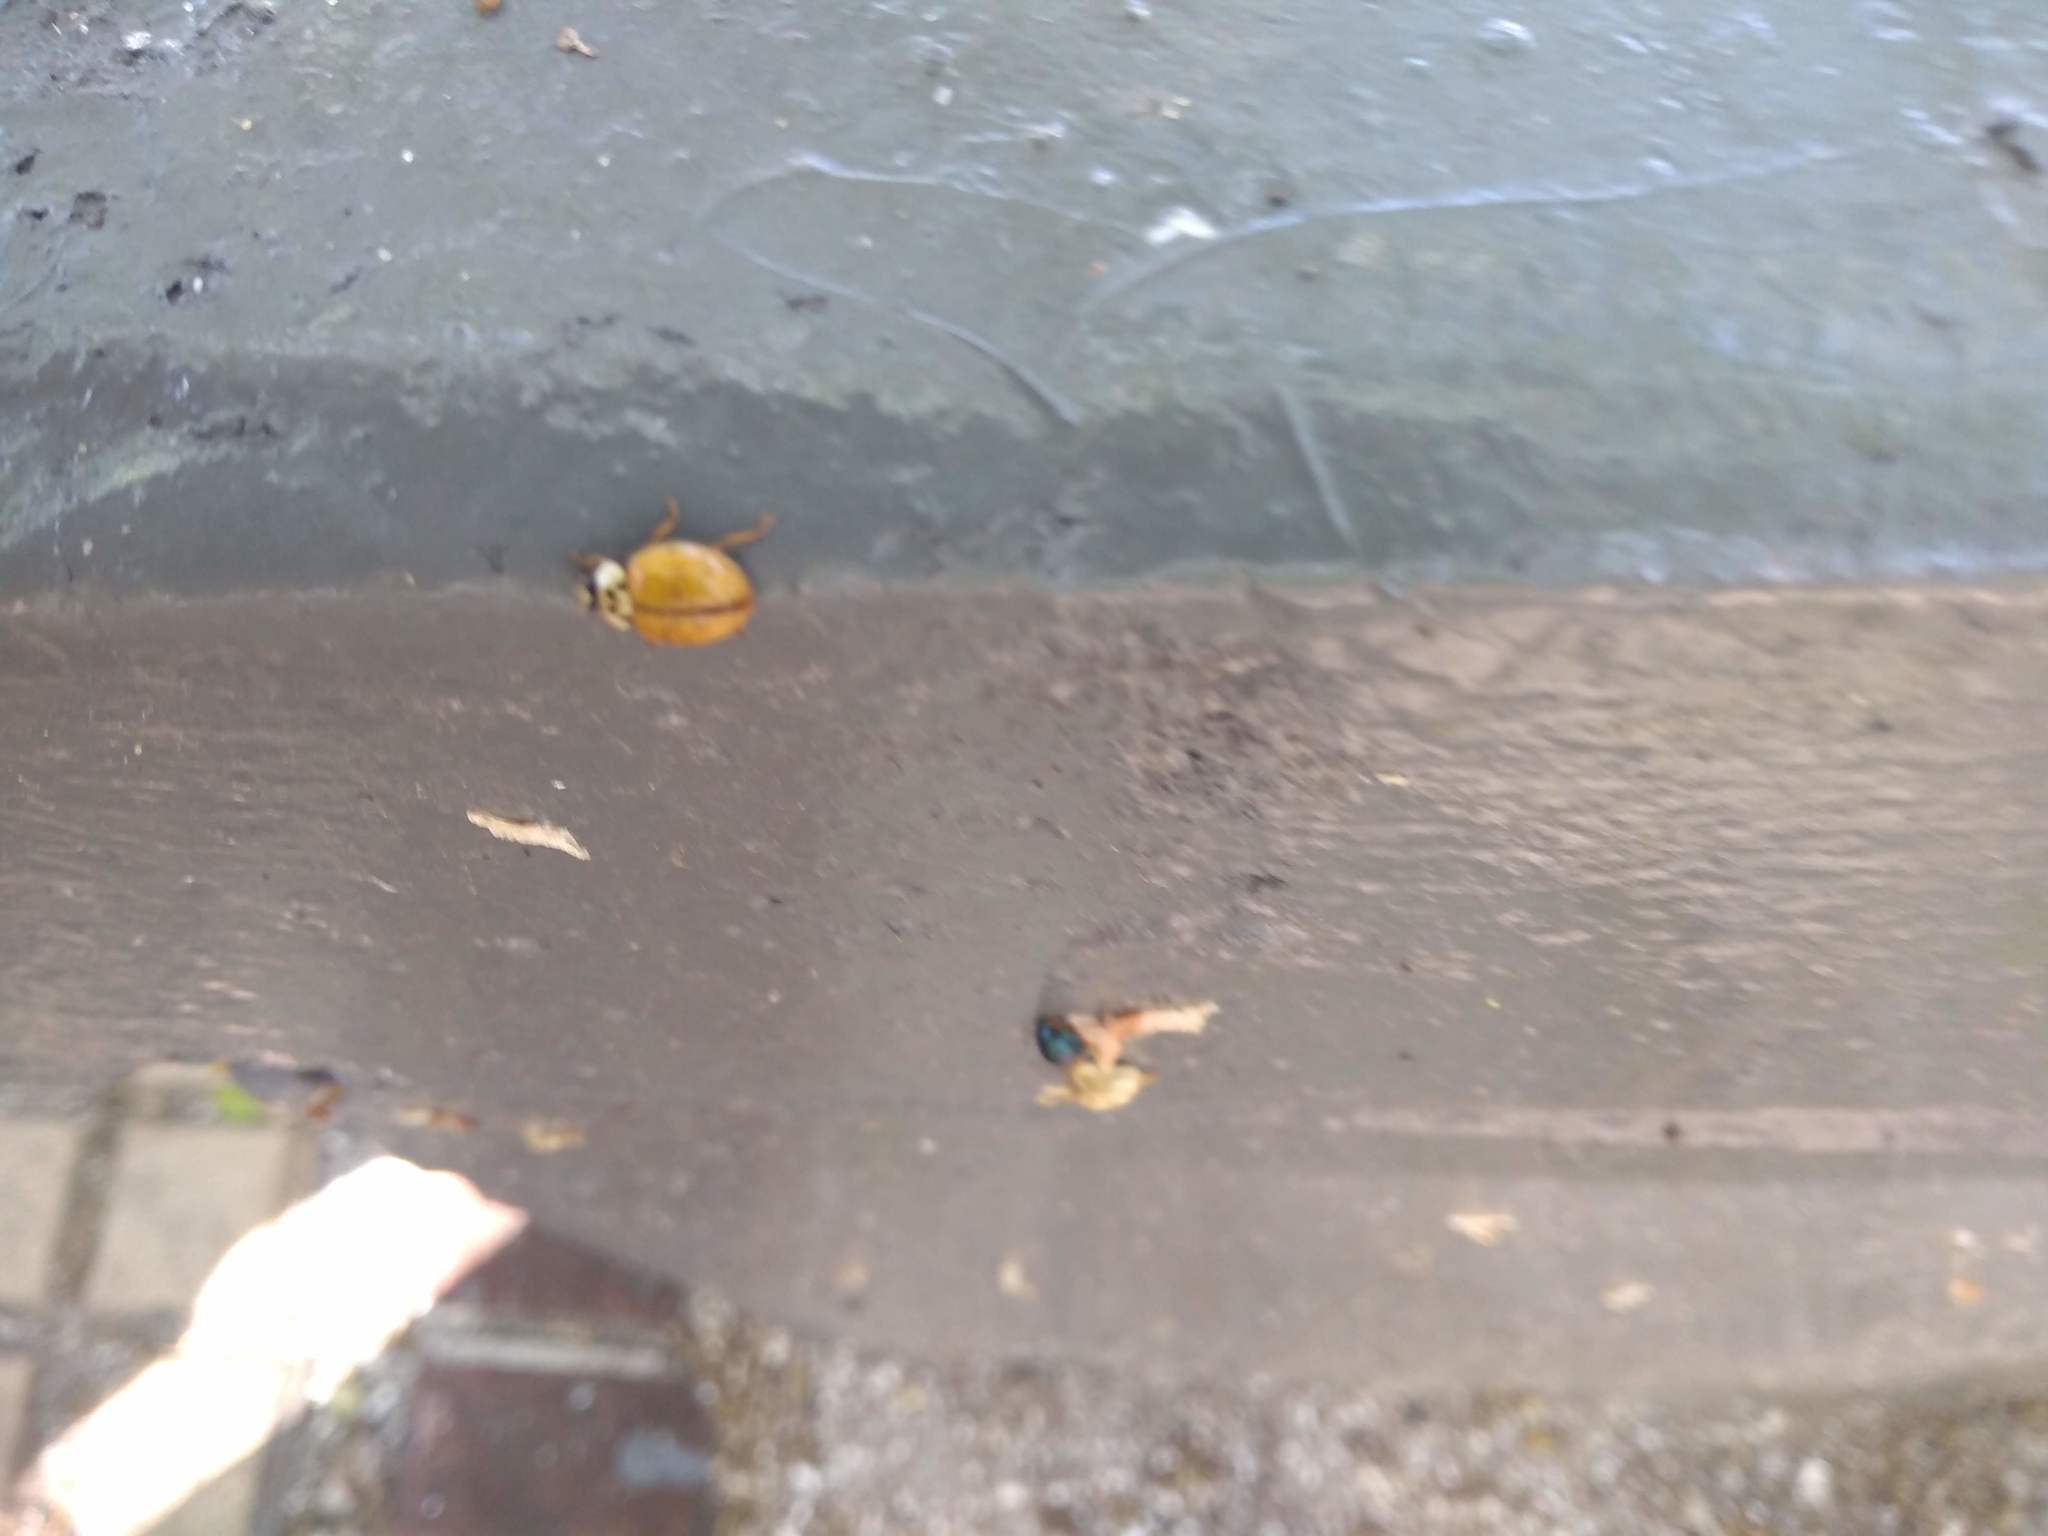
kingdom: Animalia
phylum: Arthropoda
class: Insecta
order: Coleoptera
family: Coccinellidae
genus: Harmonia
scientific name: Harmonia axyridis
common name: Harlequin ladybird
